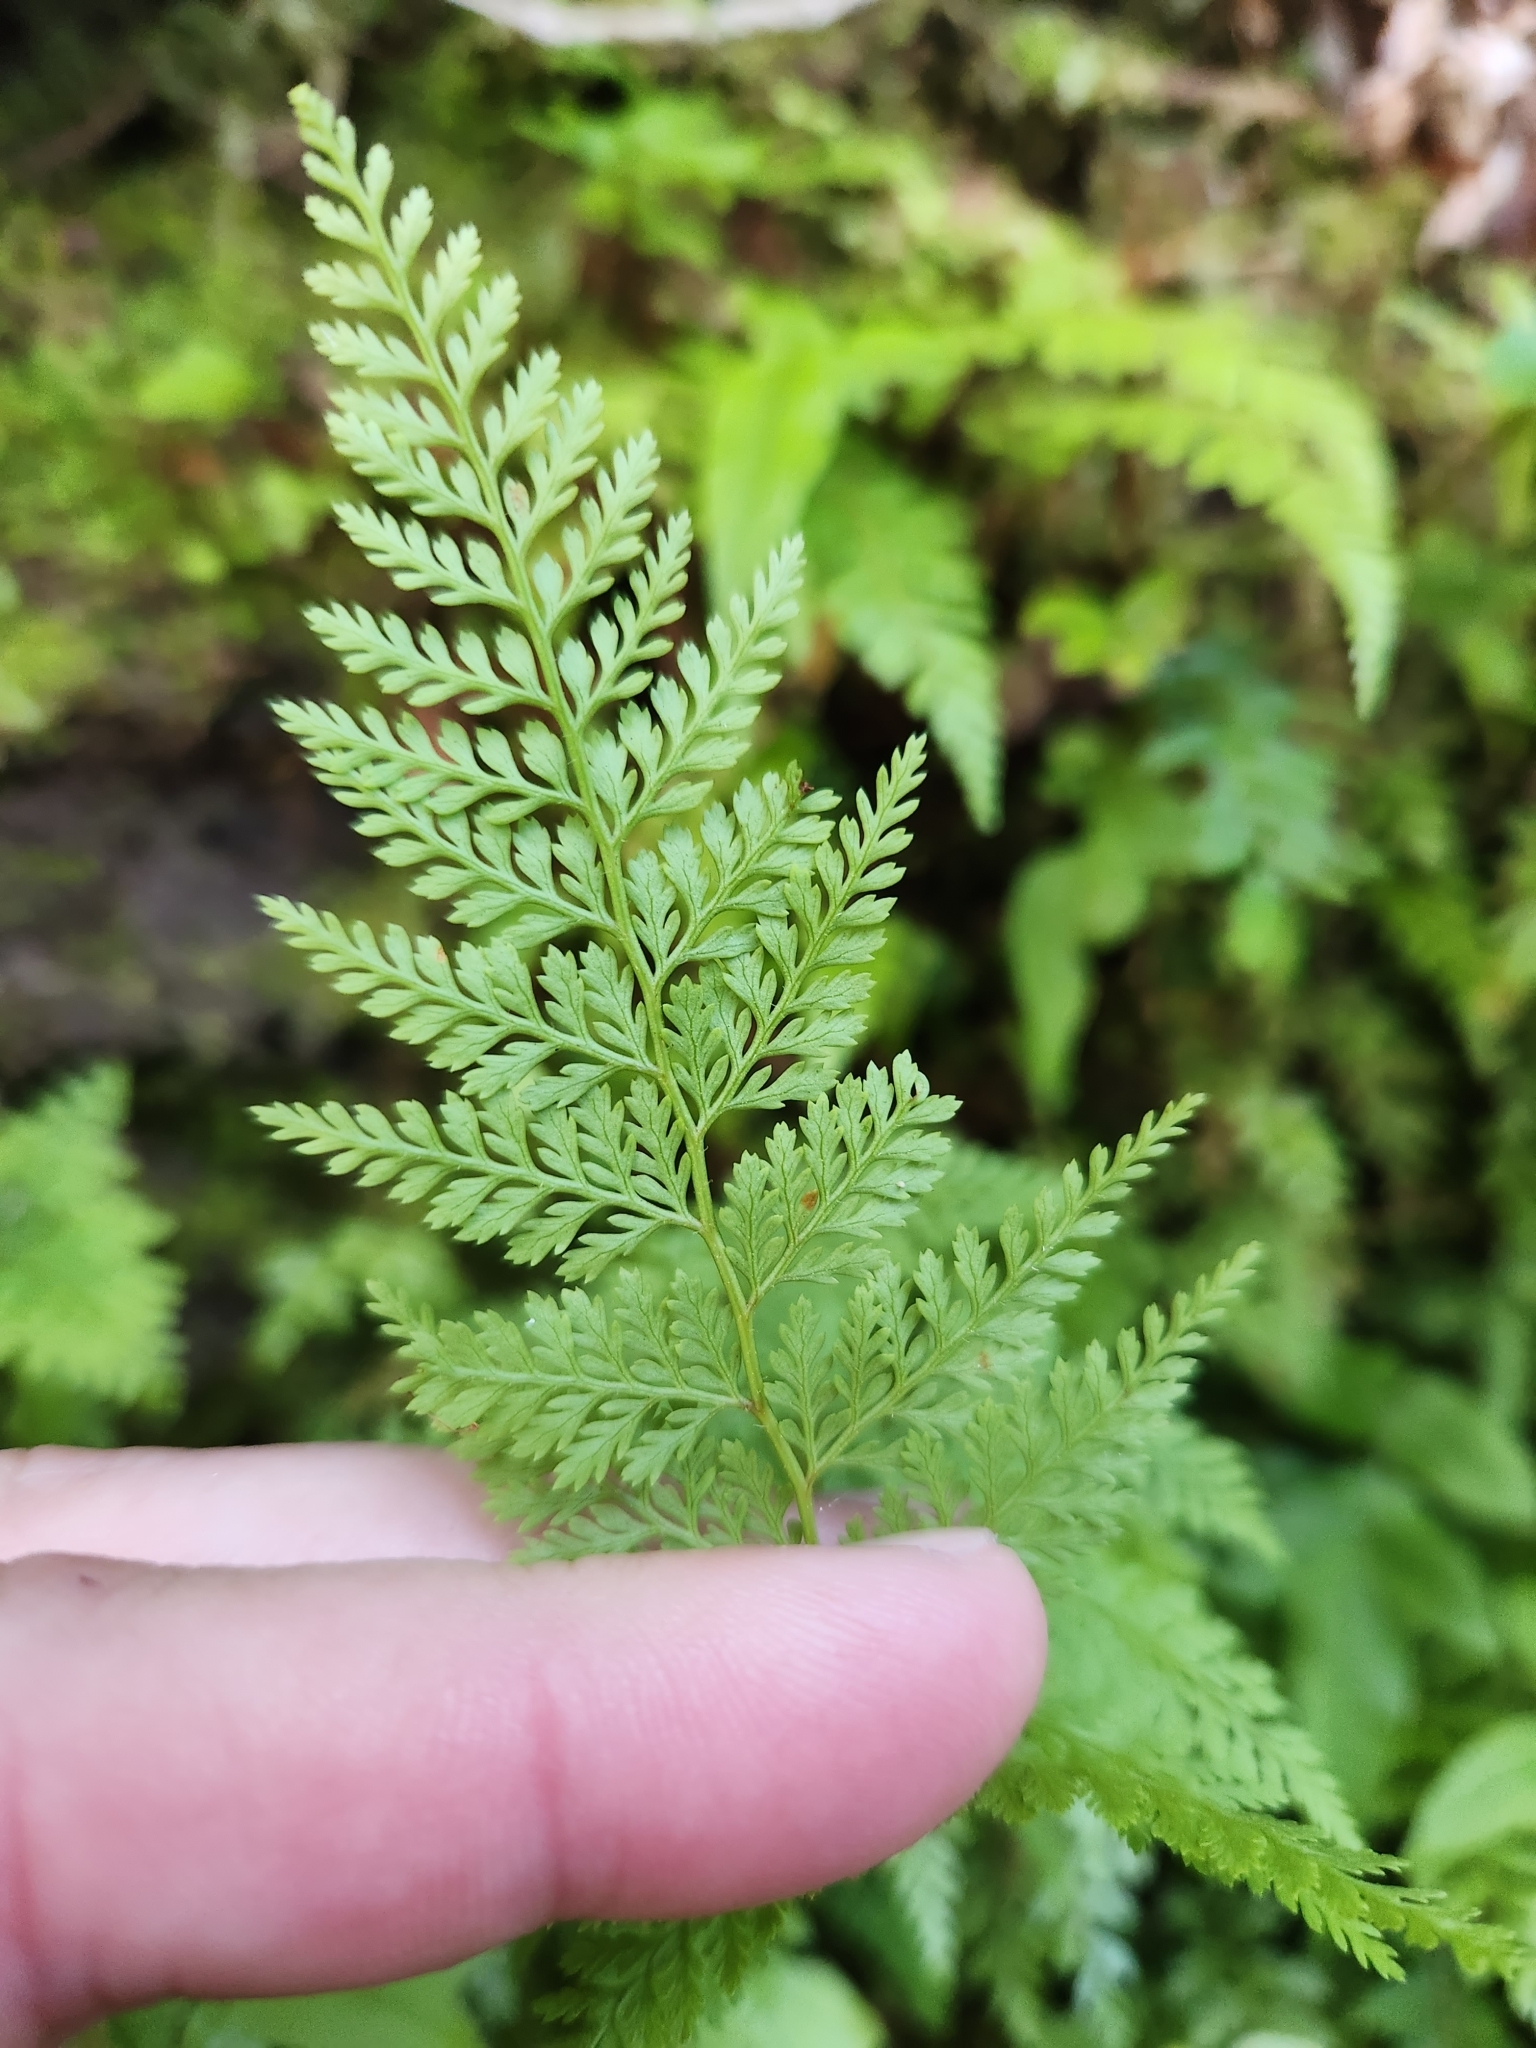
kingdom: Plantae
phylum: Tracheophyta
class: Polypodiopsida
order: Polypodiales
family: Dennstaedtiaceae
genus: Paesia
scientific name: Paesia scaberula
